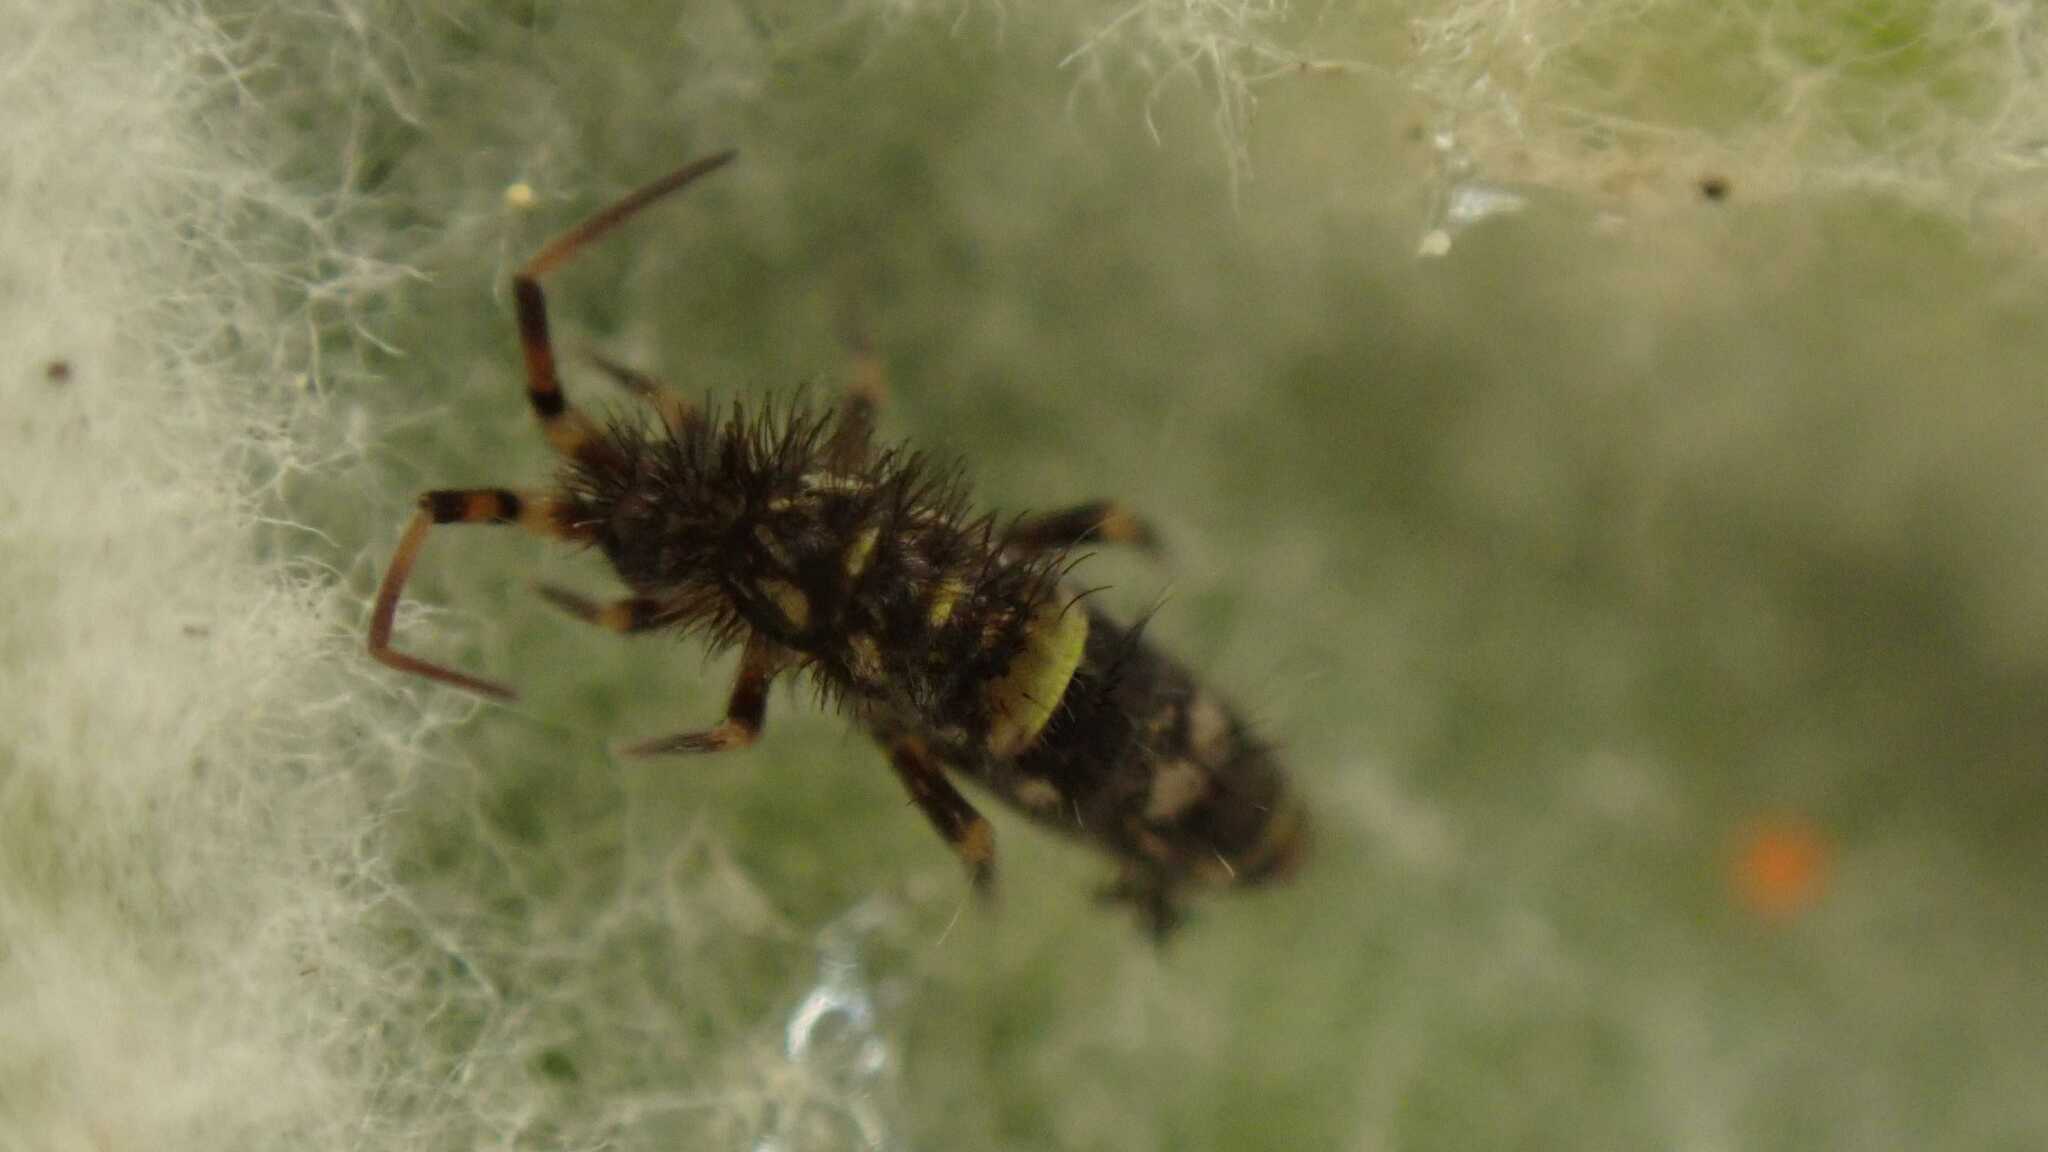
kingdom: Animalia
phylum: Arthropoda
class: Collembola
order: Entomobryomorpha
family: Orchesellidae
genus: Orchesella
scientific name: Orchesella cincta
